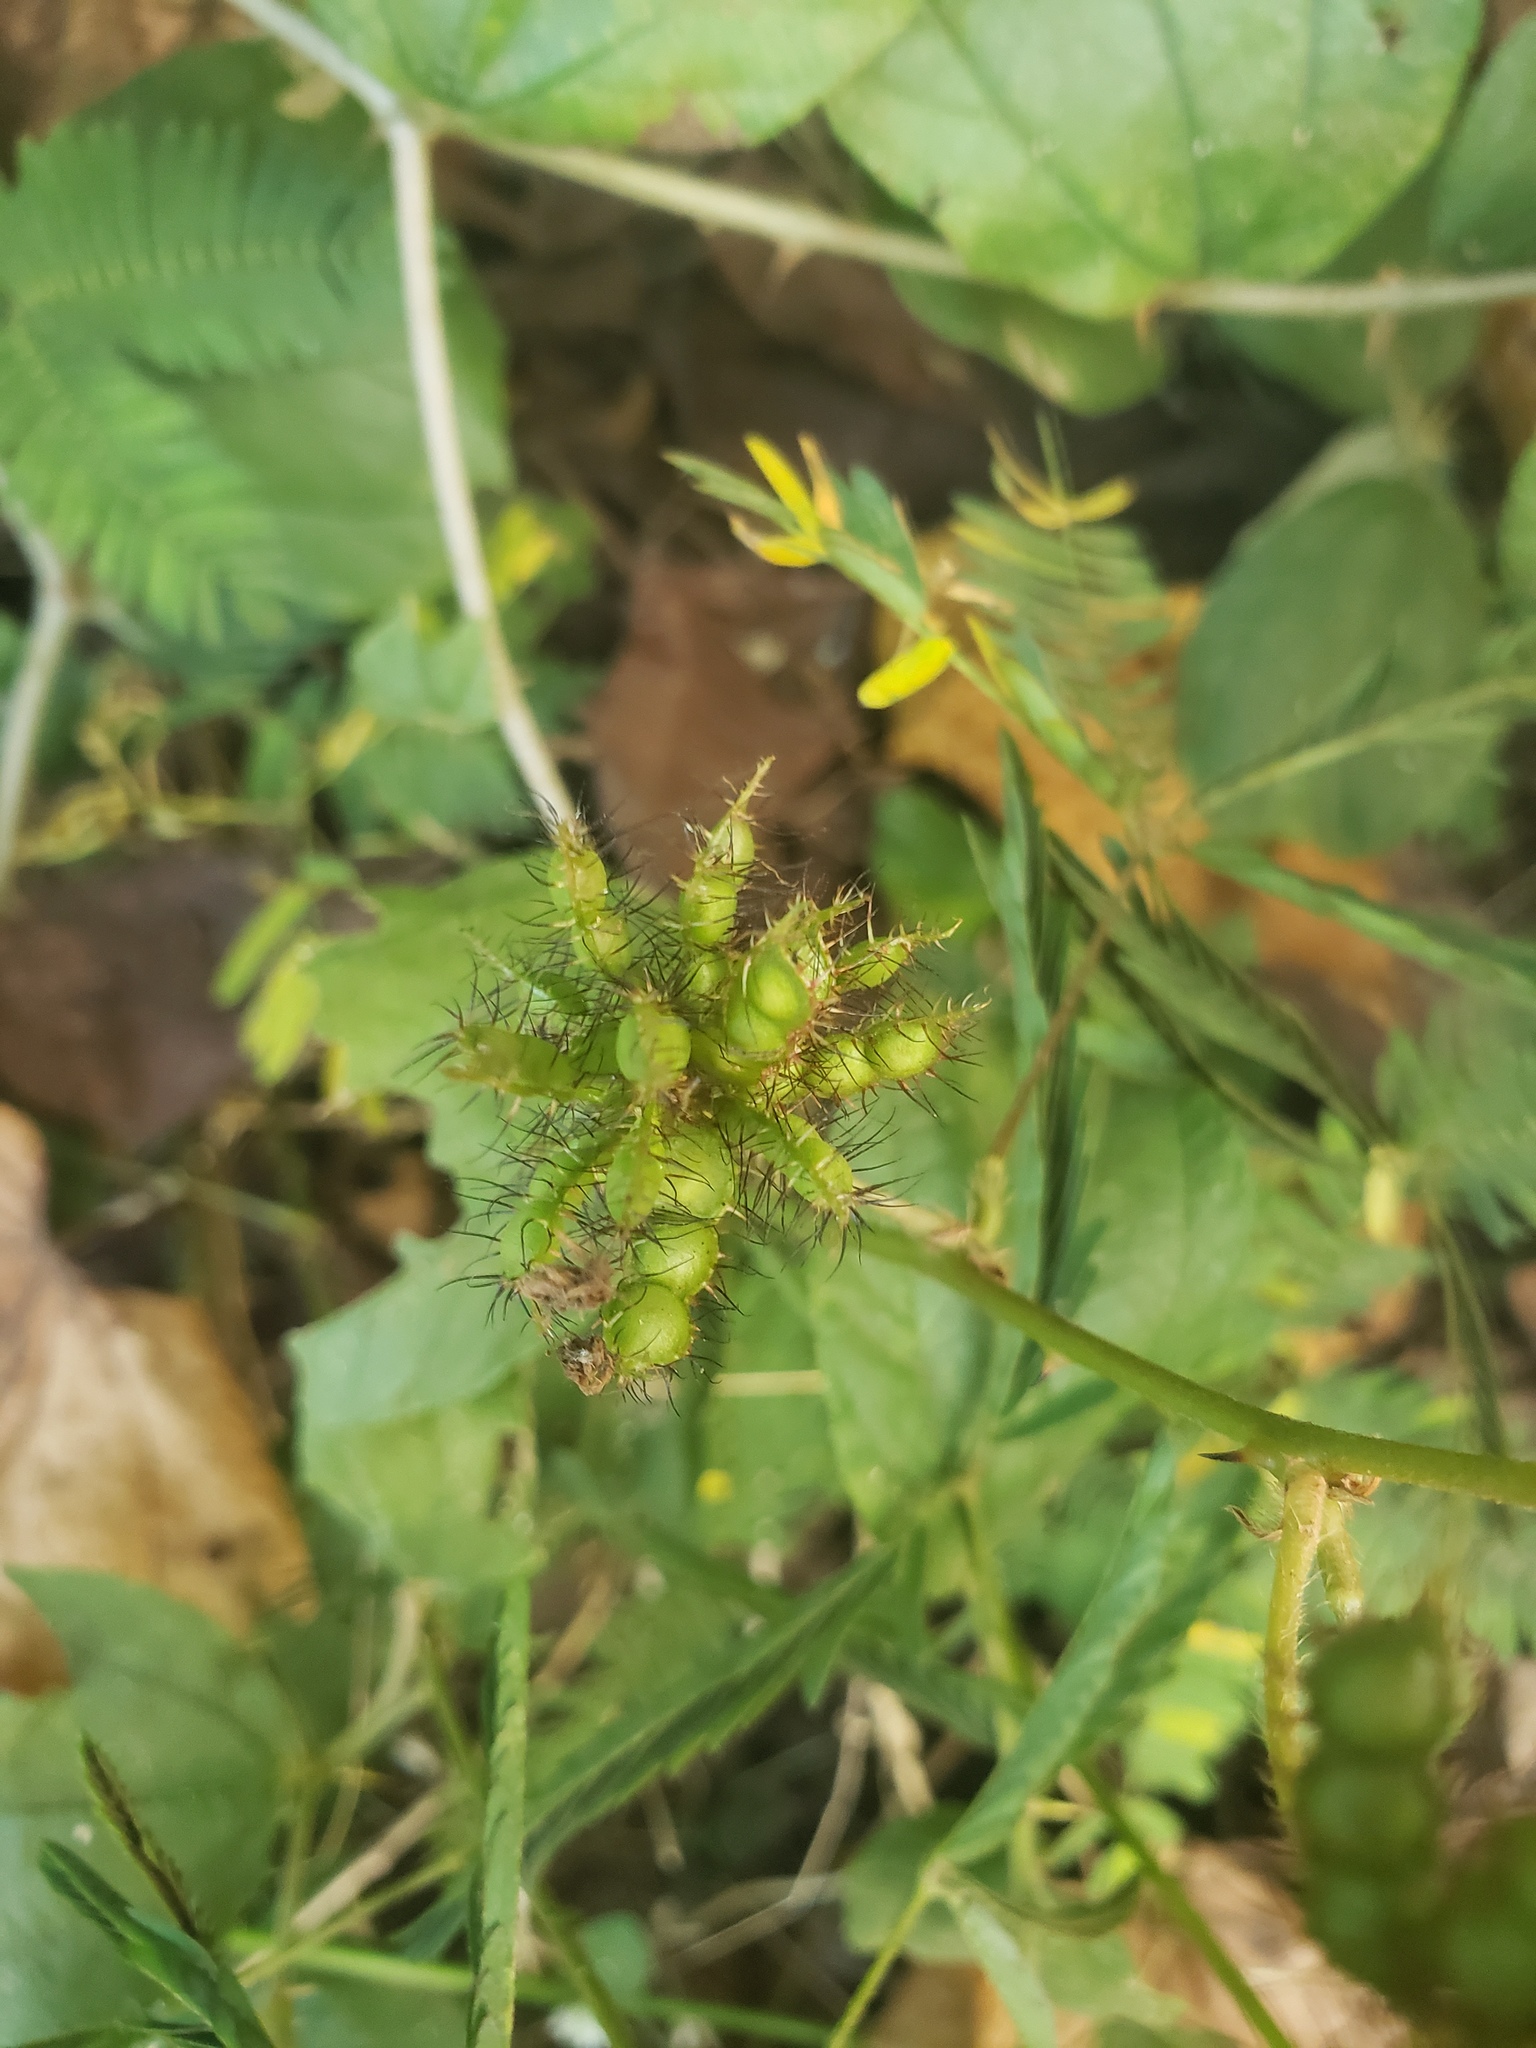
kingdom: Plantae
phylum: Tracheophyta
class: Magnoliopsida
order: Fabales
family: Fabaceae
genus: Mimosa
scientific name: Mimosa pudica
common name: Sensitive plant
